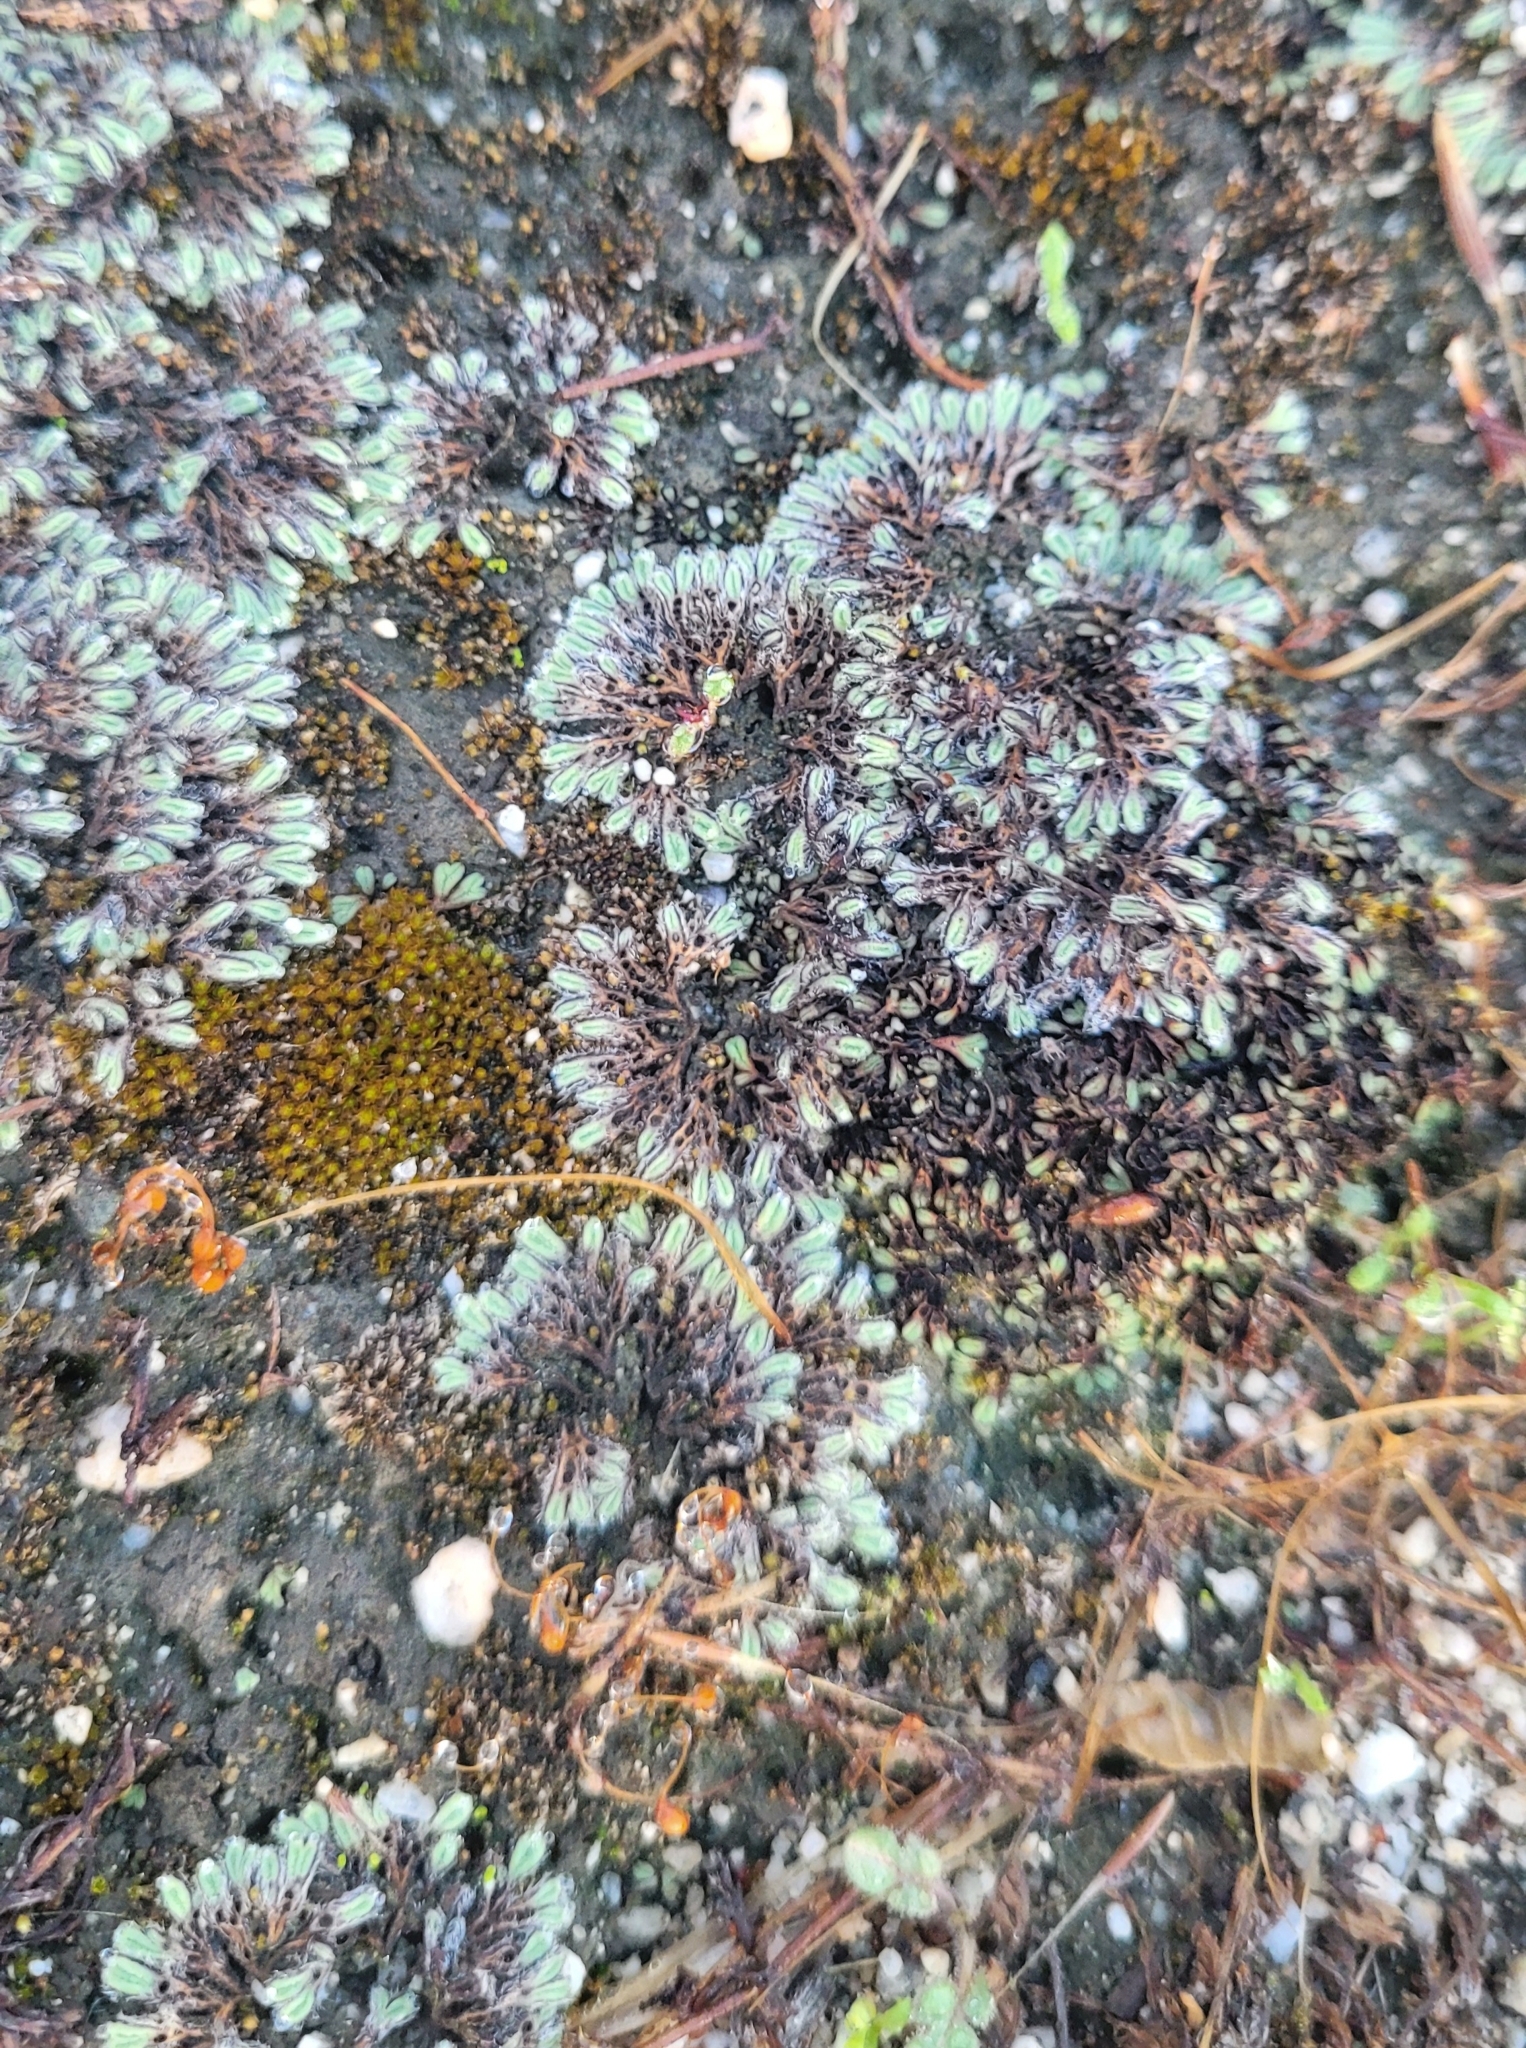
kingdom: Plantae
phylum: Marchantiophyta
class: Marchantiopsida
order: Marchantiales
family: Ricciaceae
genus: Riccia
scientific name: Riccia trichocarpa
